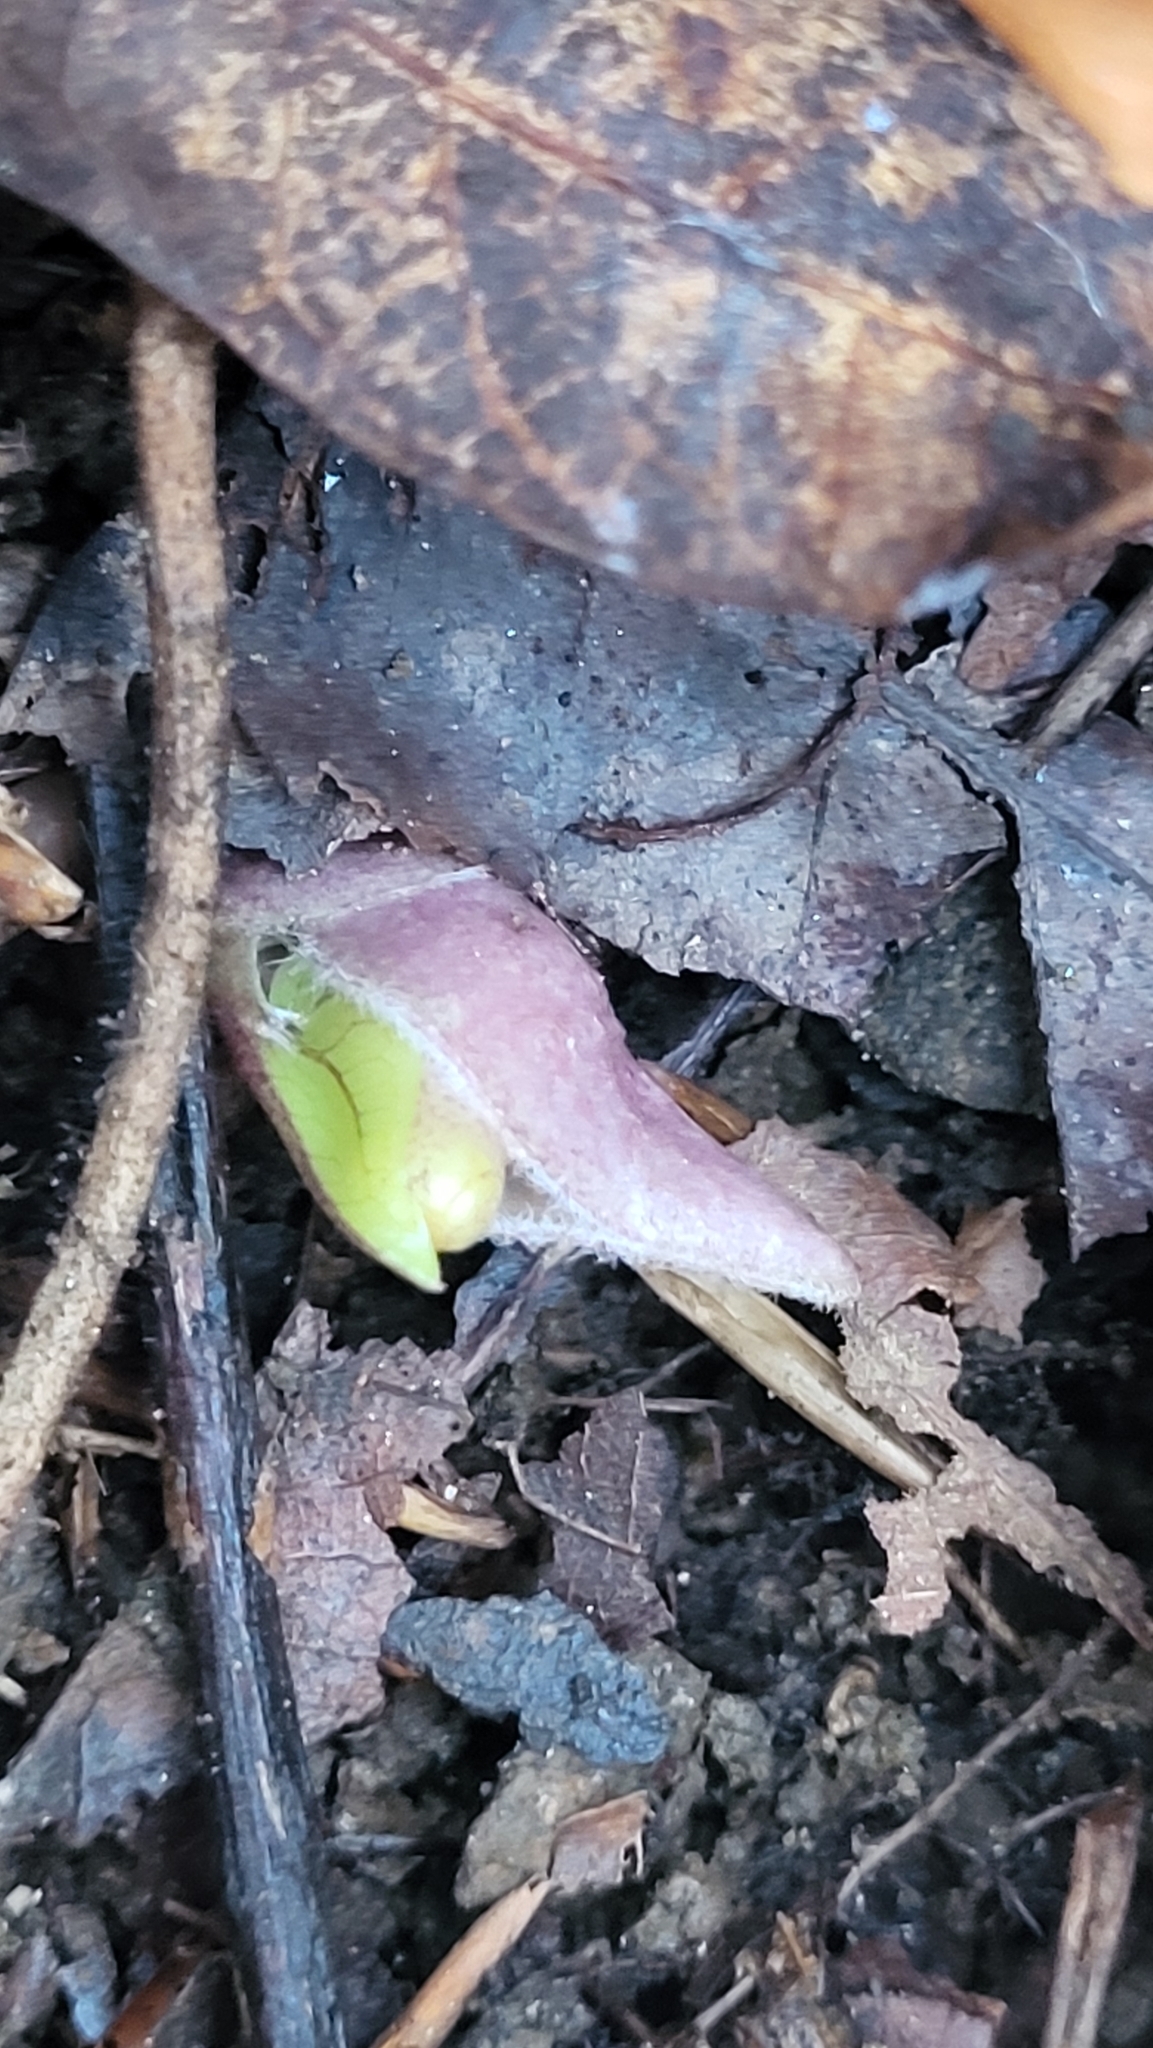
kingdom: Plantae
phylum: Tracheophyta
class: Magnoliopsida
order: Piperales
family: Aristolochiaceae
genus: Hexastylis
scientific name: Hexastylis arifolia
